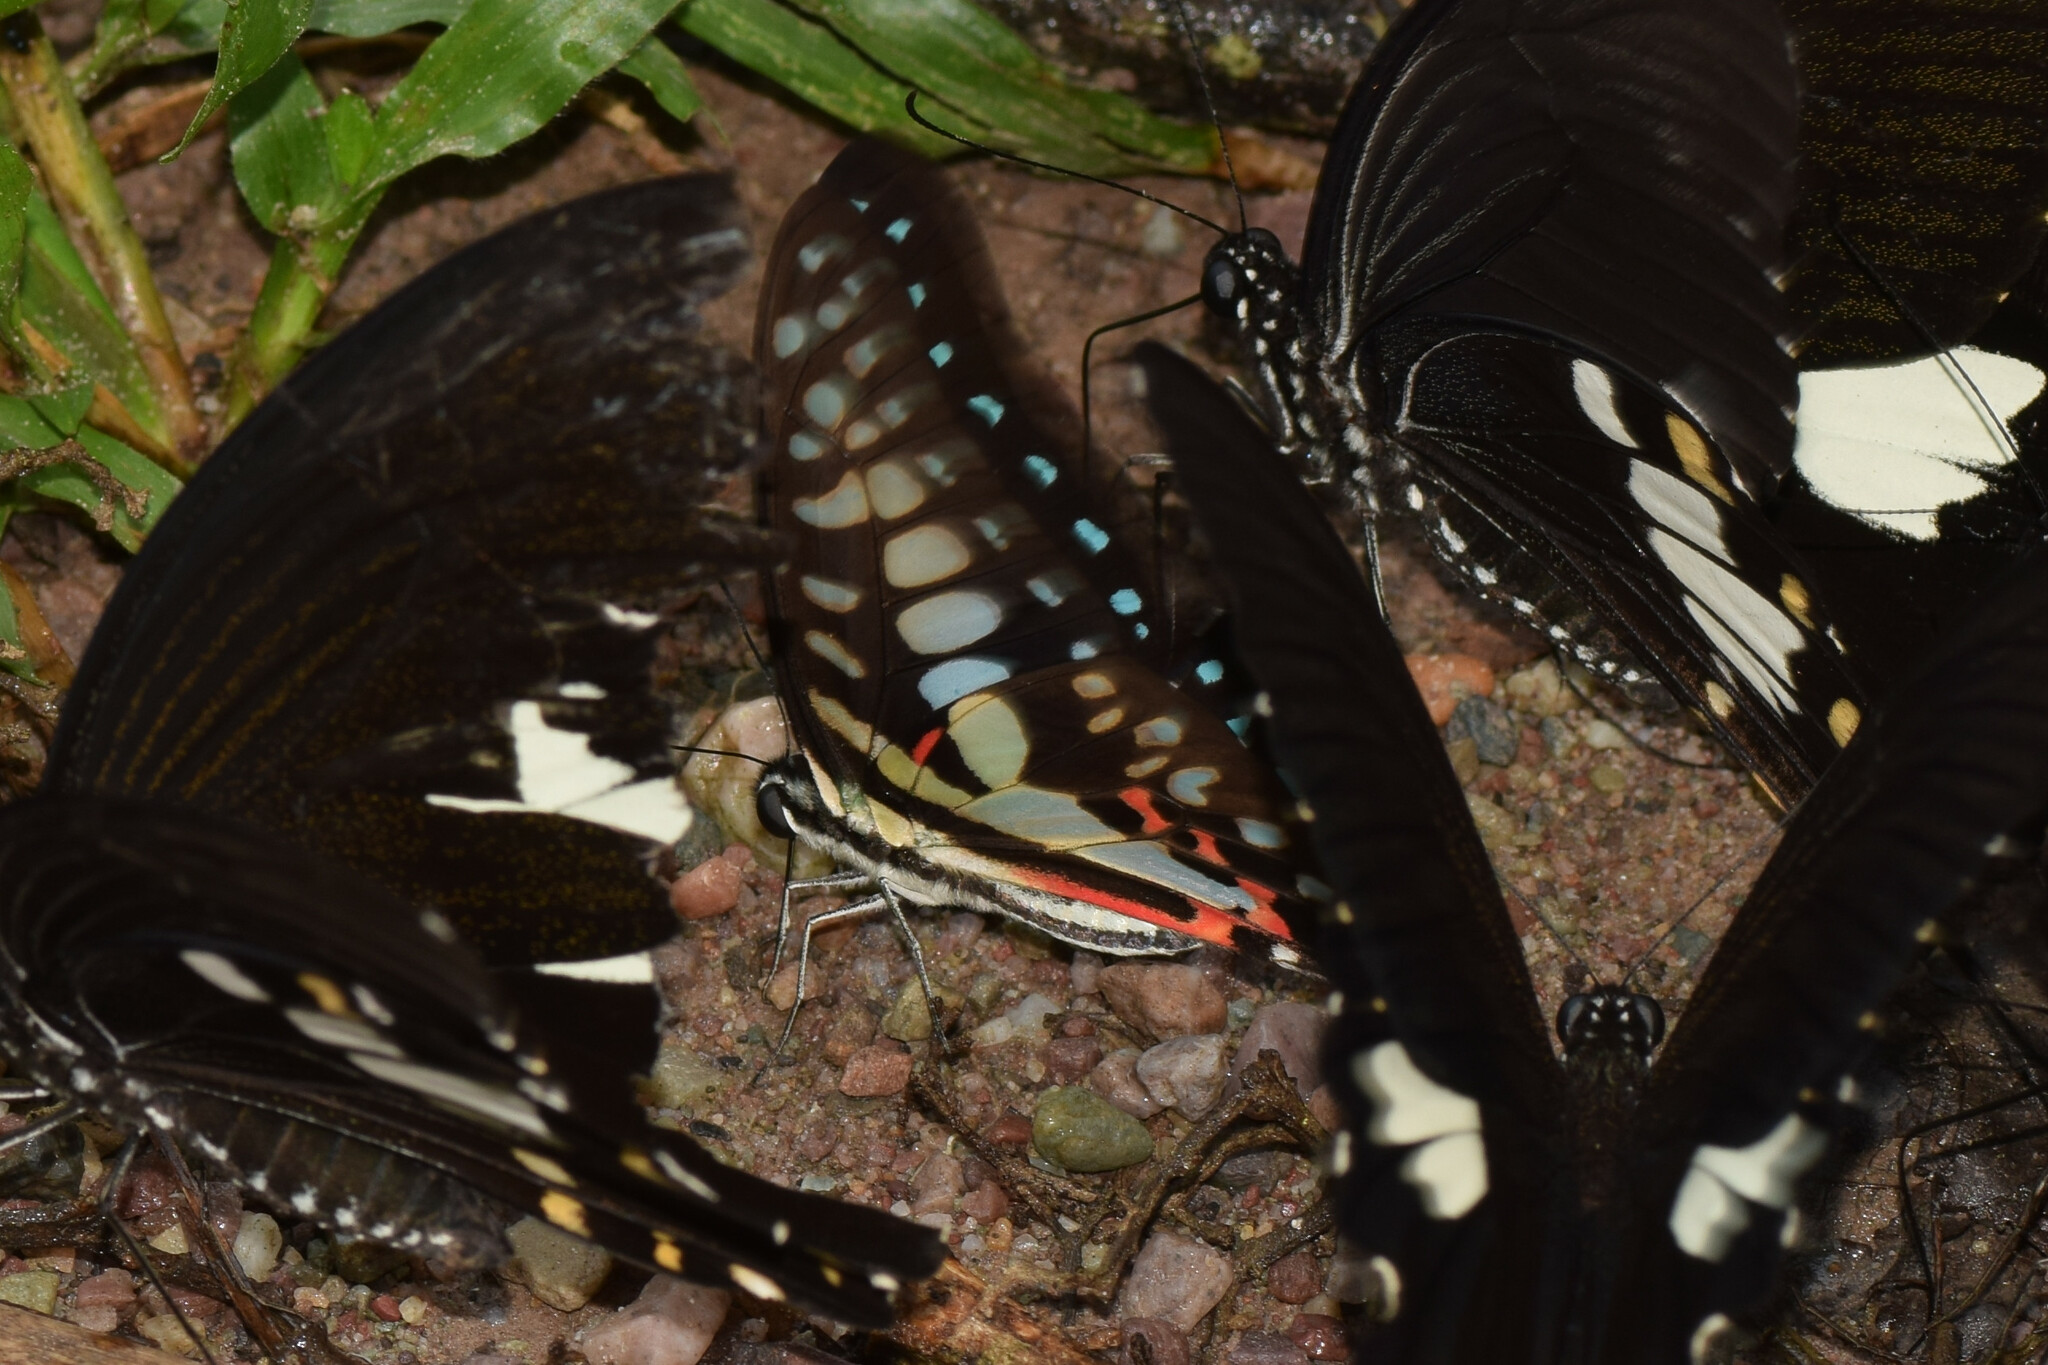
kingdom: Animalia
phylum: Arthropoda
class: Insecta
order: Lepidoptera
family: Papilionidae
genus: Graphium
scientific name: Graphium doson
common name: Common jay
